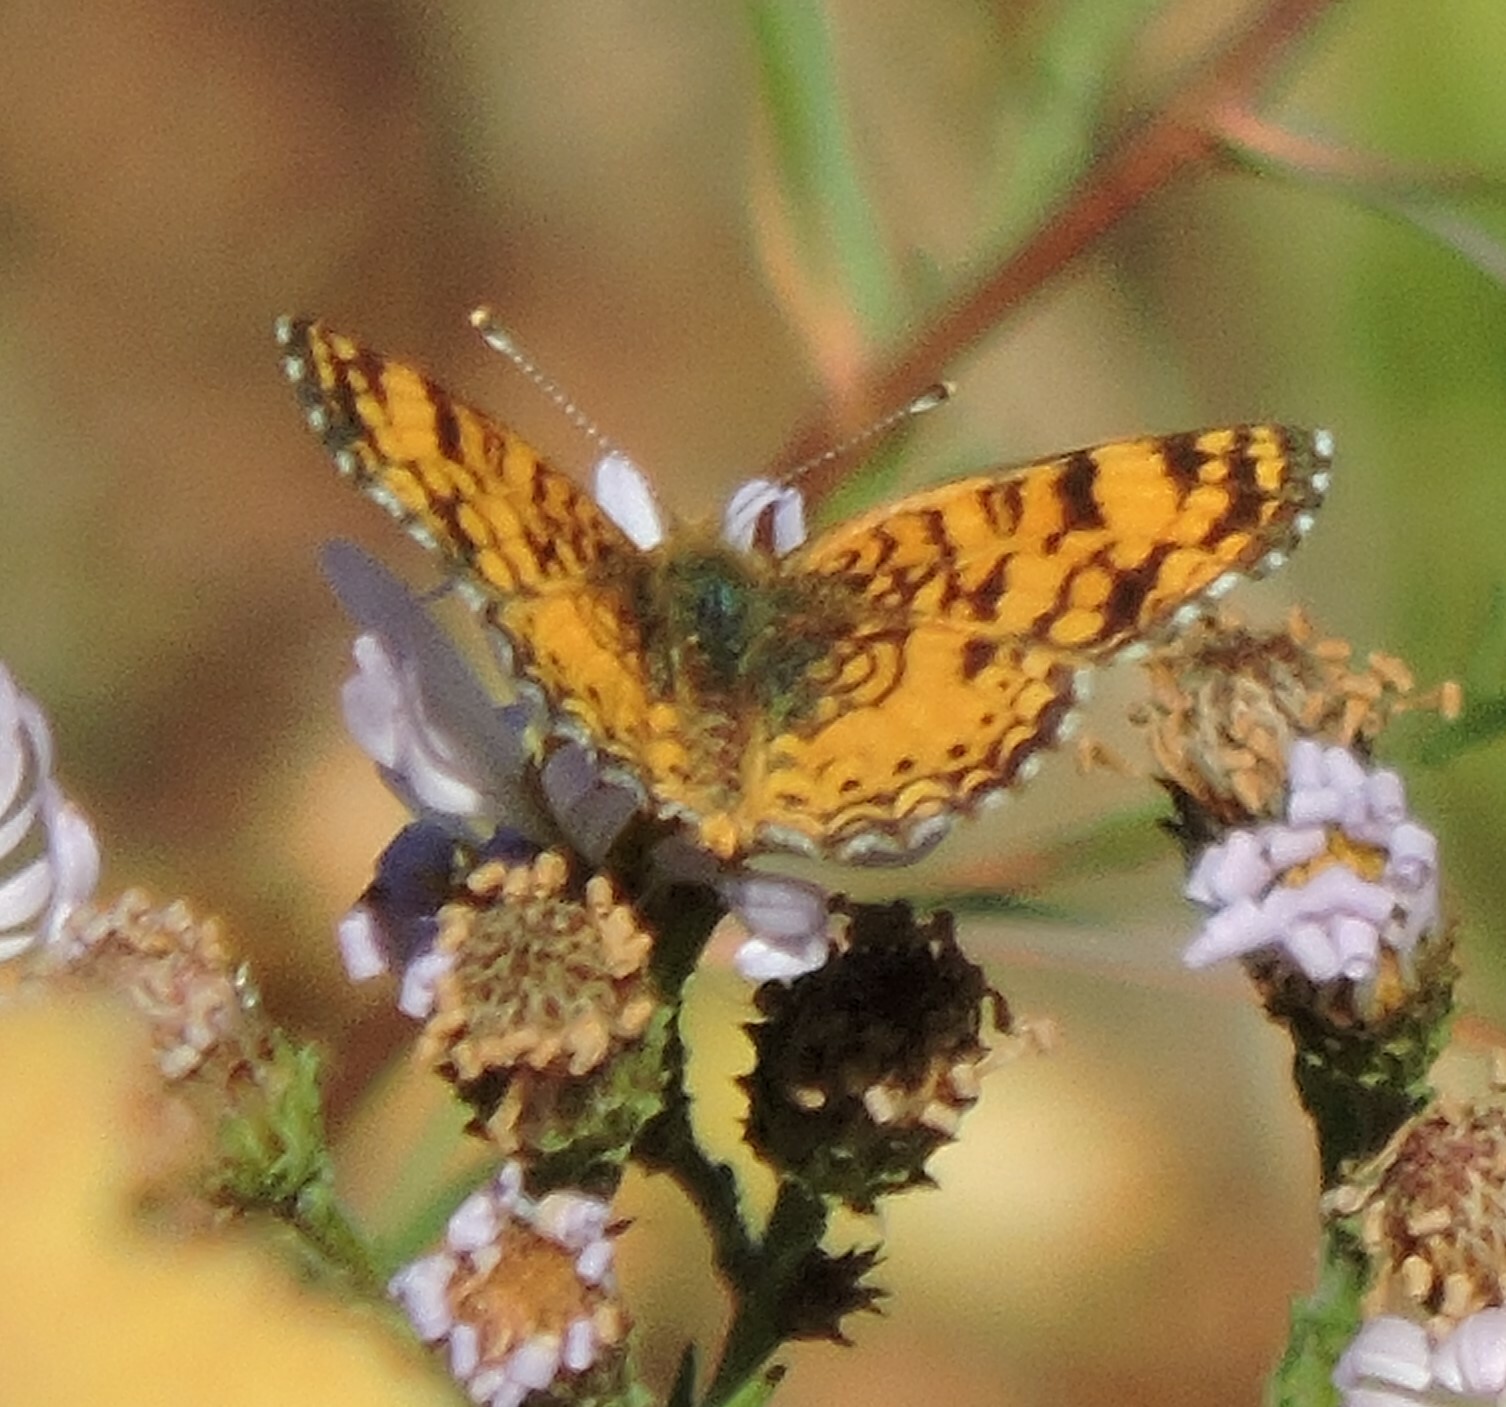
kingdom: Animalia
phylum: Arthropoda
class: Insecta
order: Lepidoptera
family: Nymphalidae
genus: Eresia
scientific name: Eresia aveyrona
